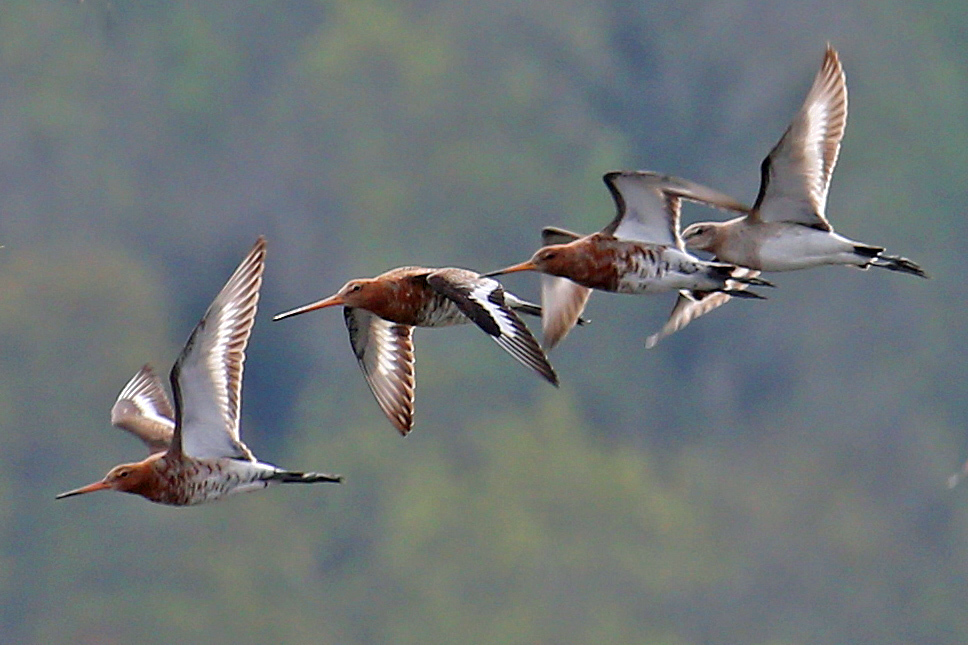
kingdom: Animalia
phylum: Chordata
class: Aves
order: Charadriiformes
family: Scolopacidae
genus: Limosa
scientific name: Limosa limosa
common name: Black-tailed godwit
